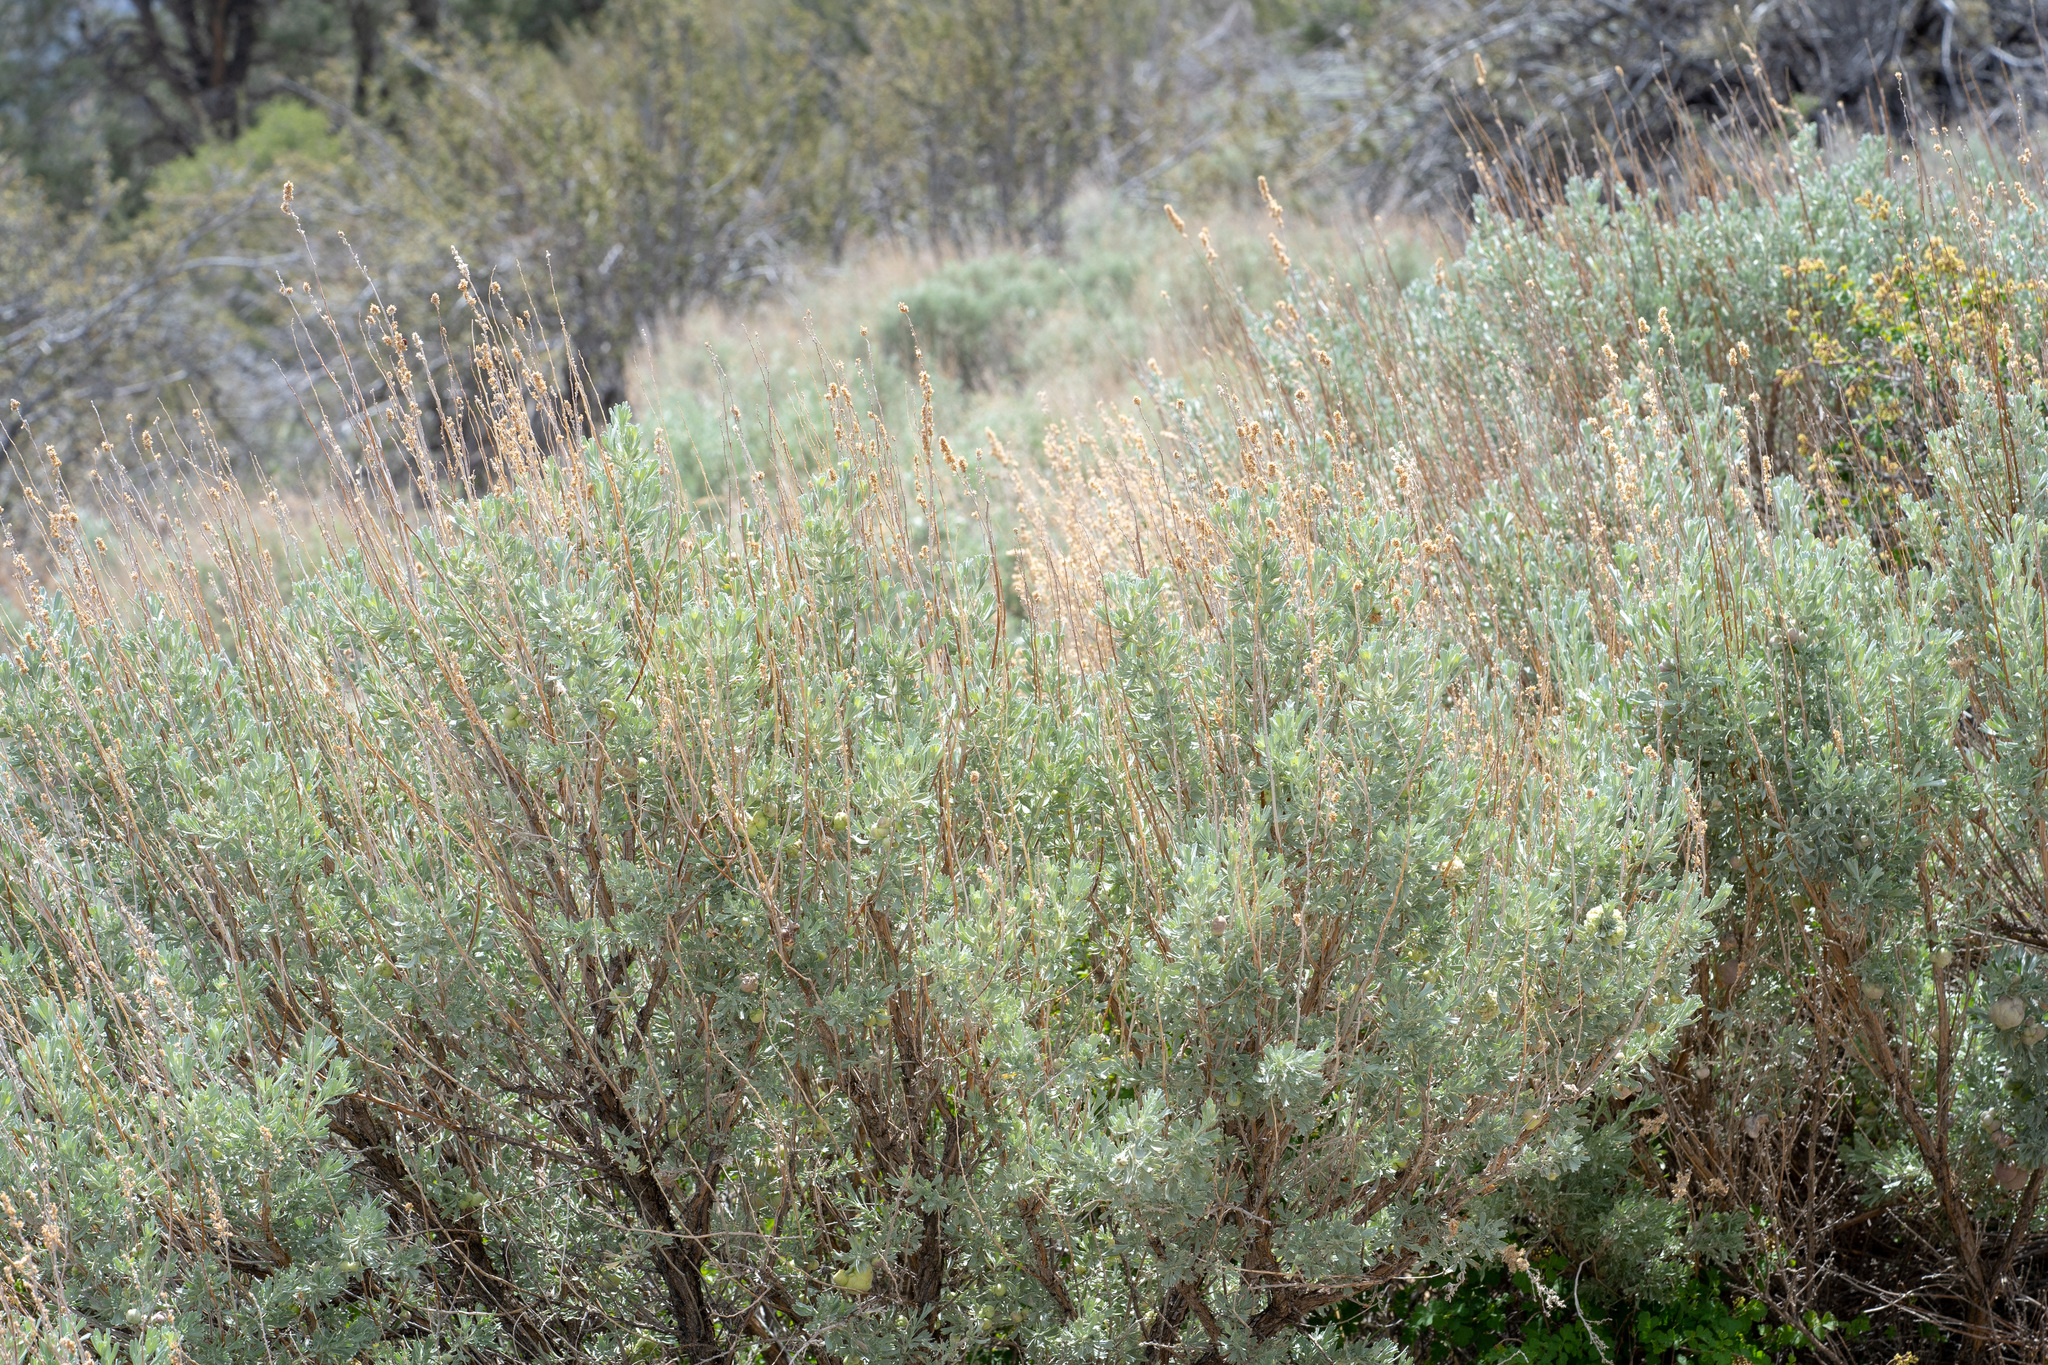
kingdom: Plantae
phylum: Tracheophyta
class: Magnoliopsida
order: Asterales
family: Asteraceae
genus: Artemisia
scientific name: Artemisia tridentata
